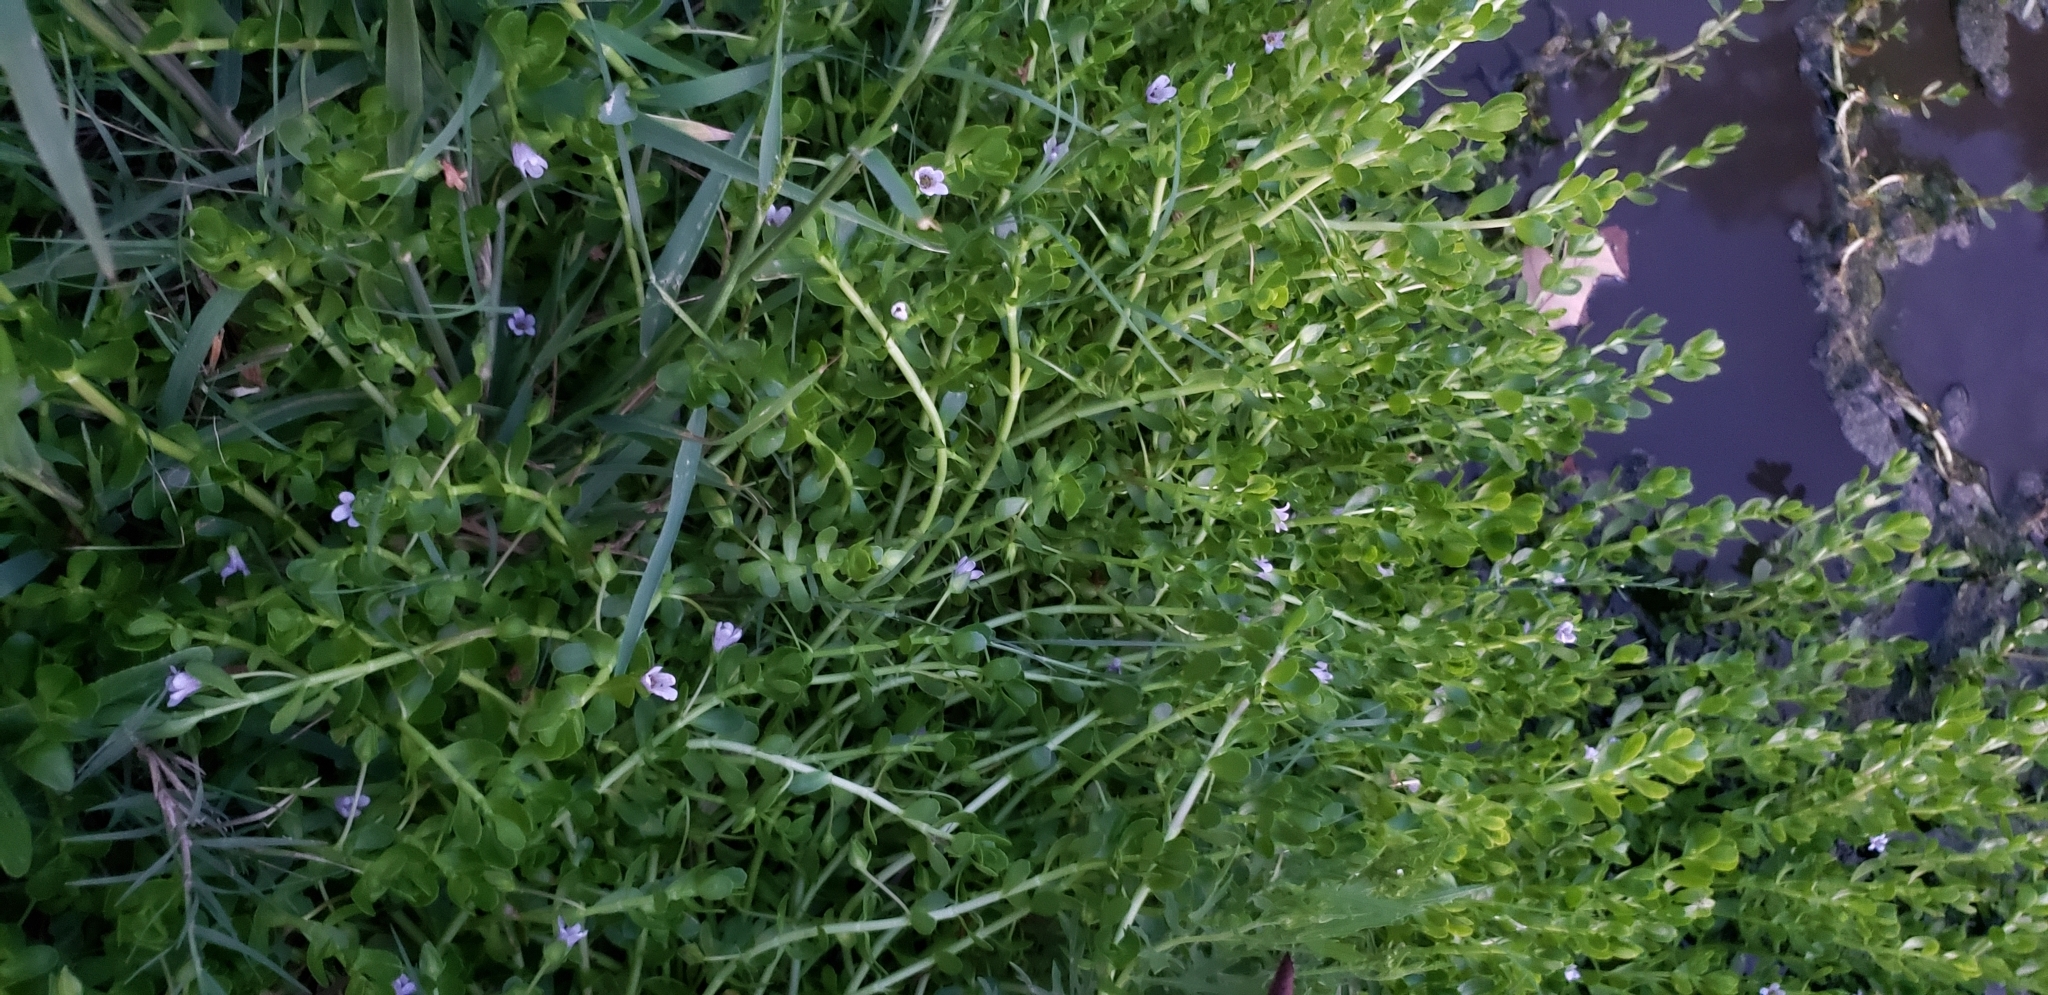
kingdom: Plantae
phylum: Tracheophyta
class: Magnoliopsida
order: Lamiales
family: Plantaginaceae
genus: Bacopa
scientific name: Bacopa monnieri
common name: Indian-pennywort
